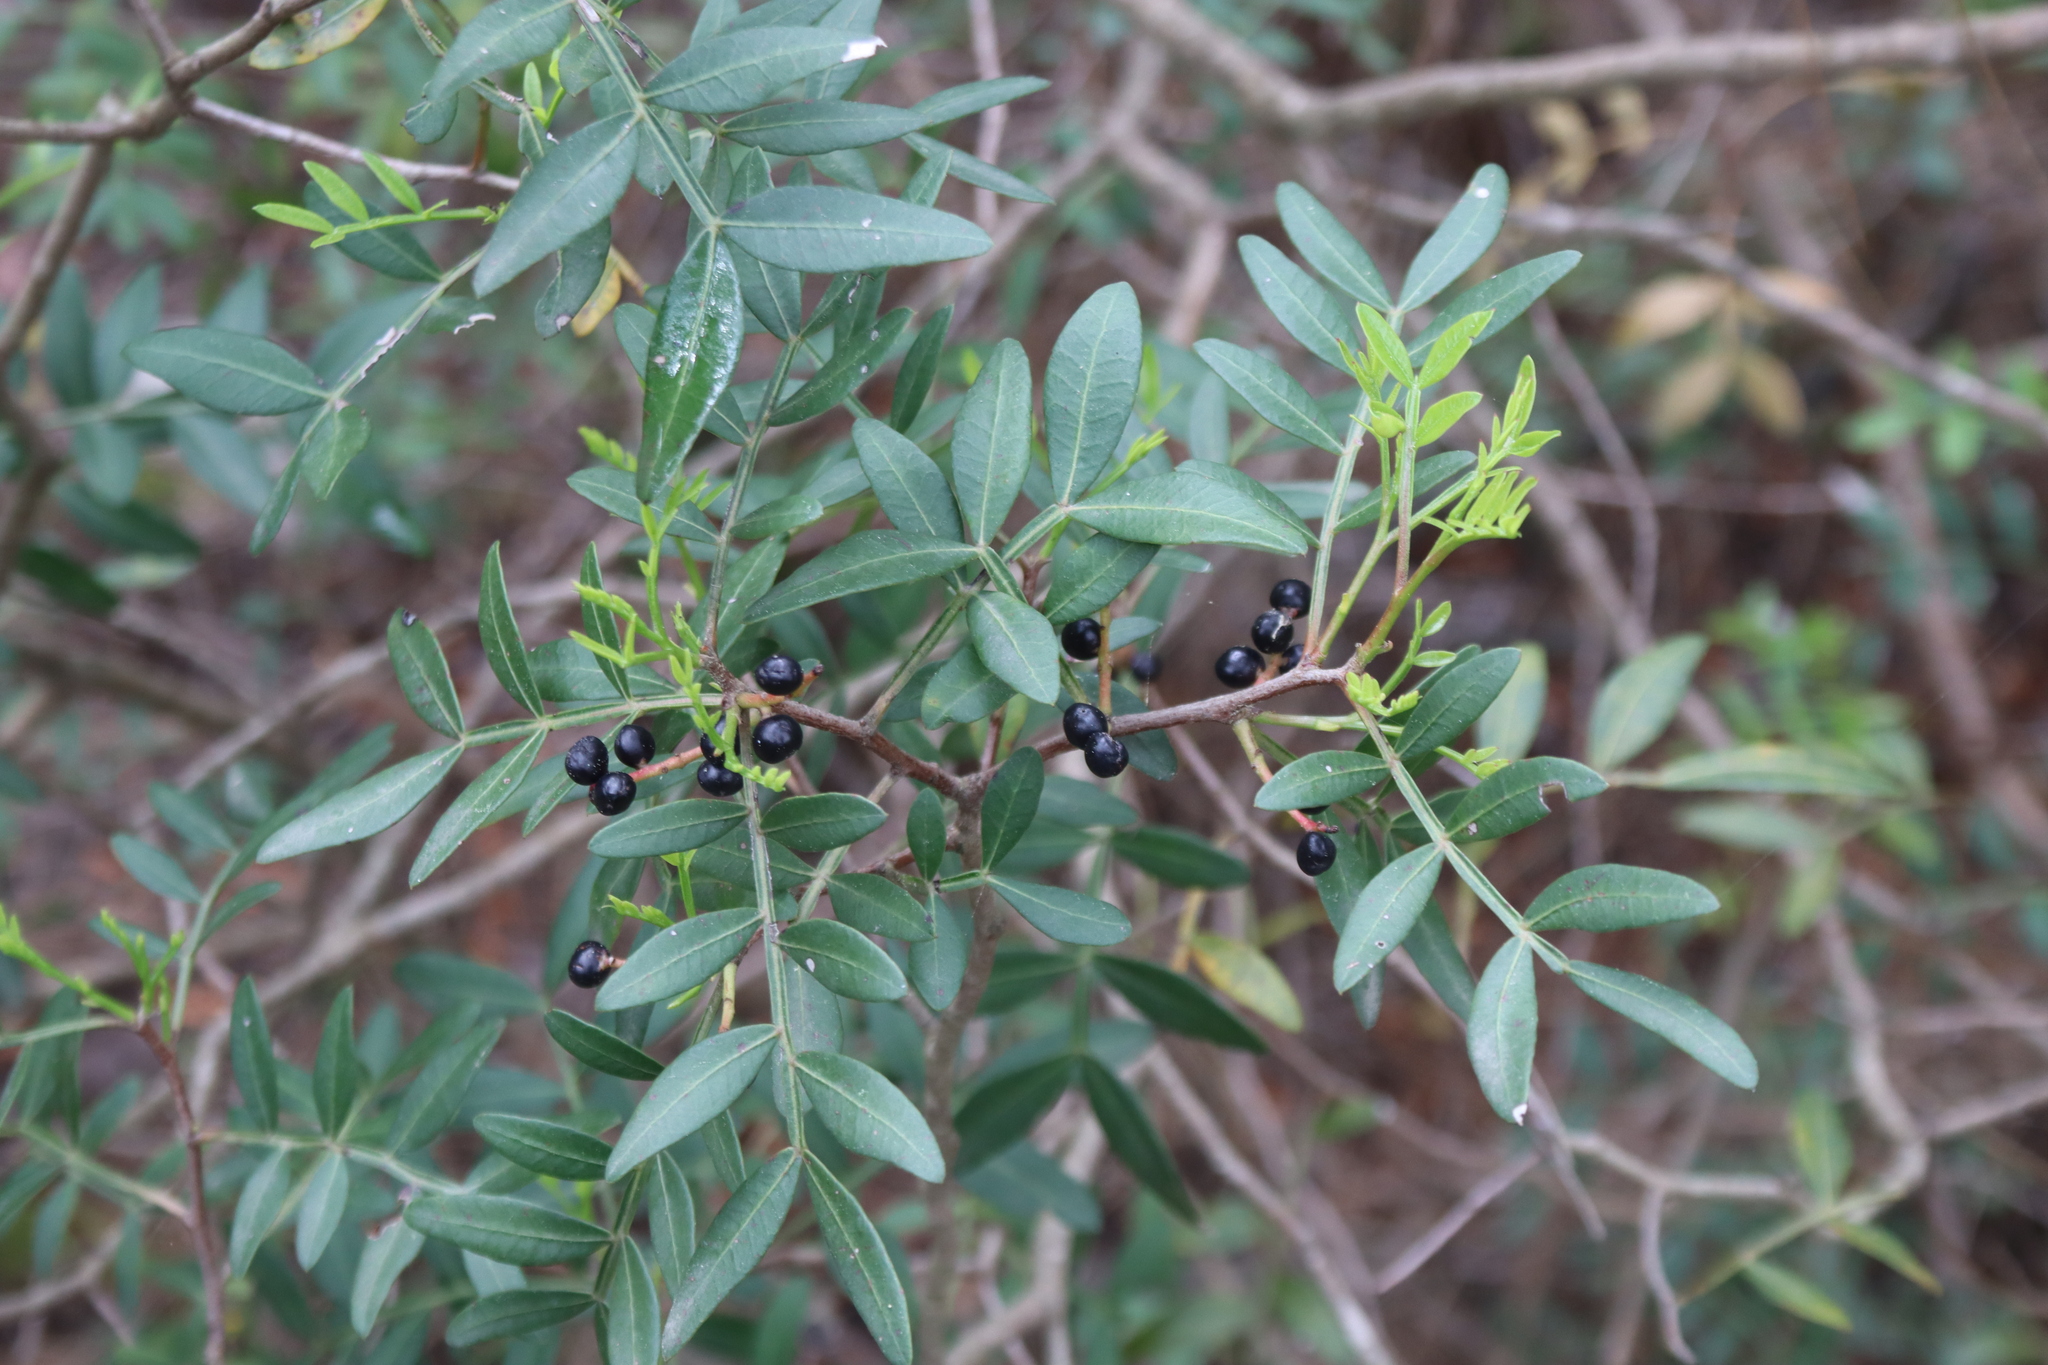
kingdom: Plantae
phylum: Tracheophyta
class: Magnoliopsida
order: Sapindales
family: Anacardiaceae
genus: Pistacia
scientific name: Pistacia lentiscus
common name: Lentisk
